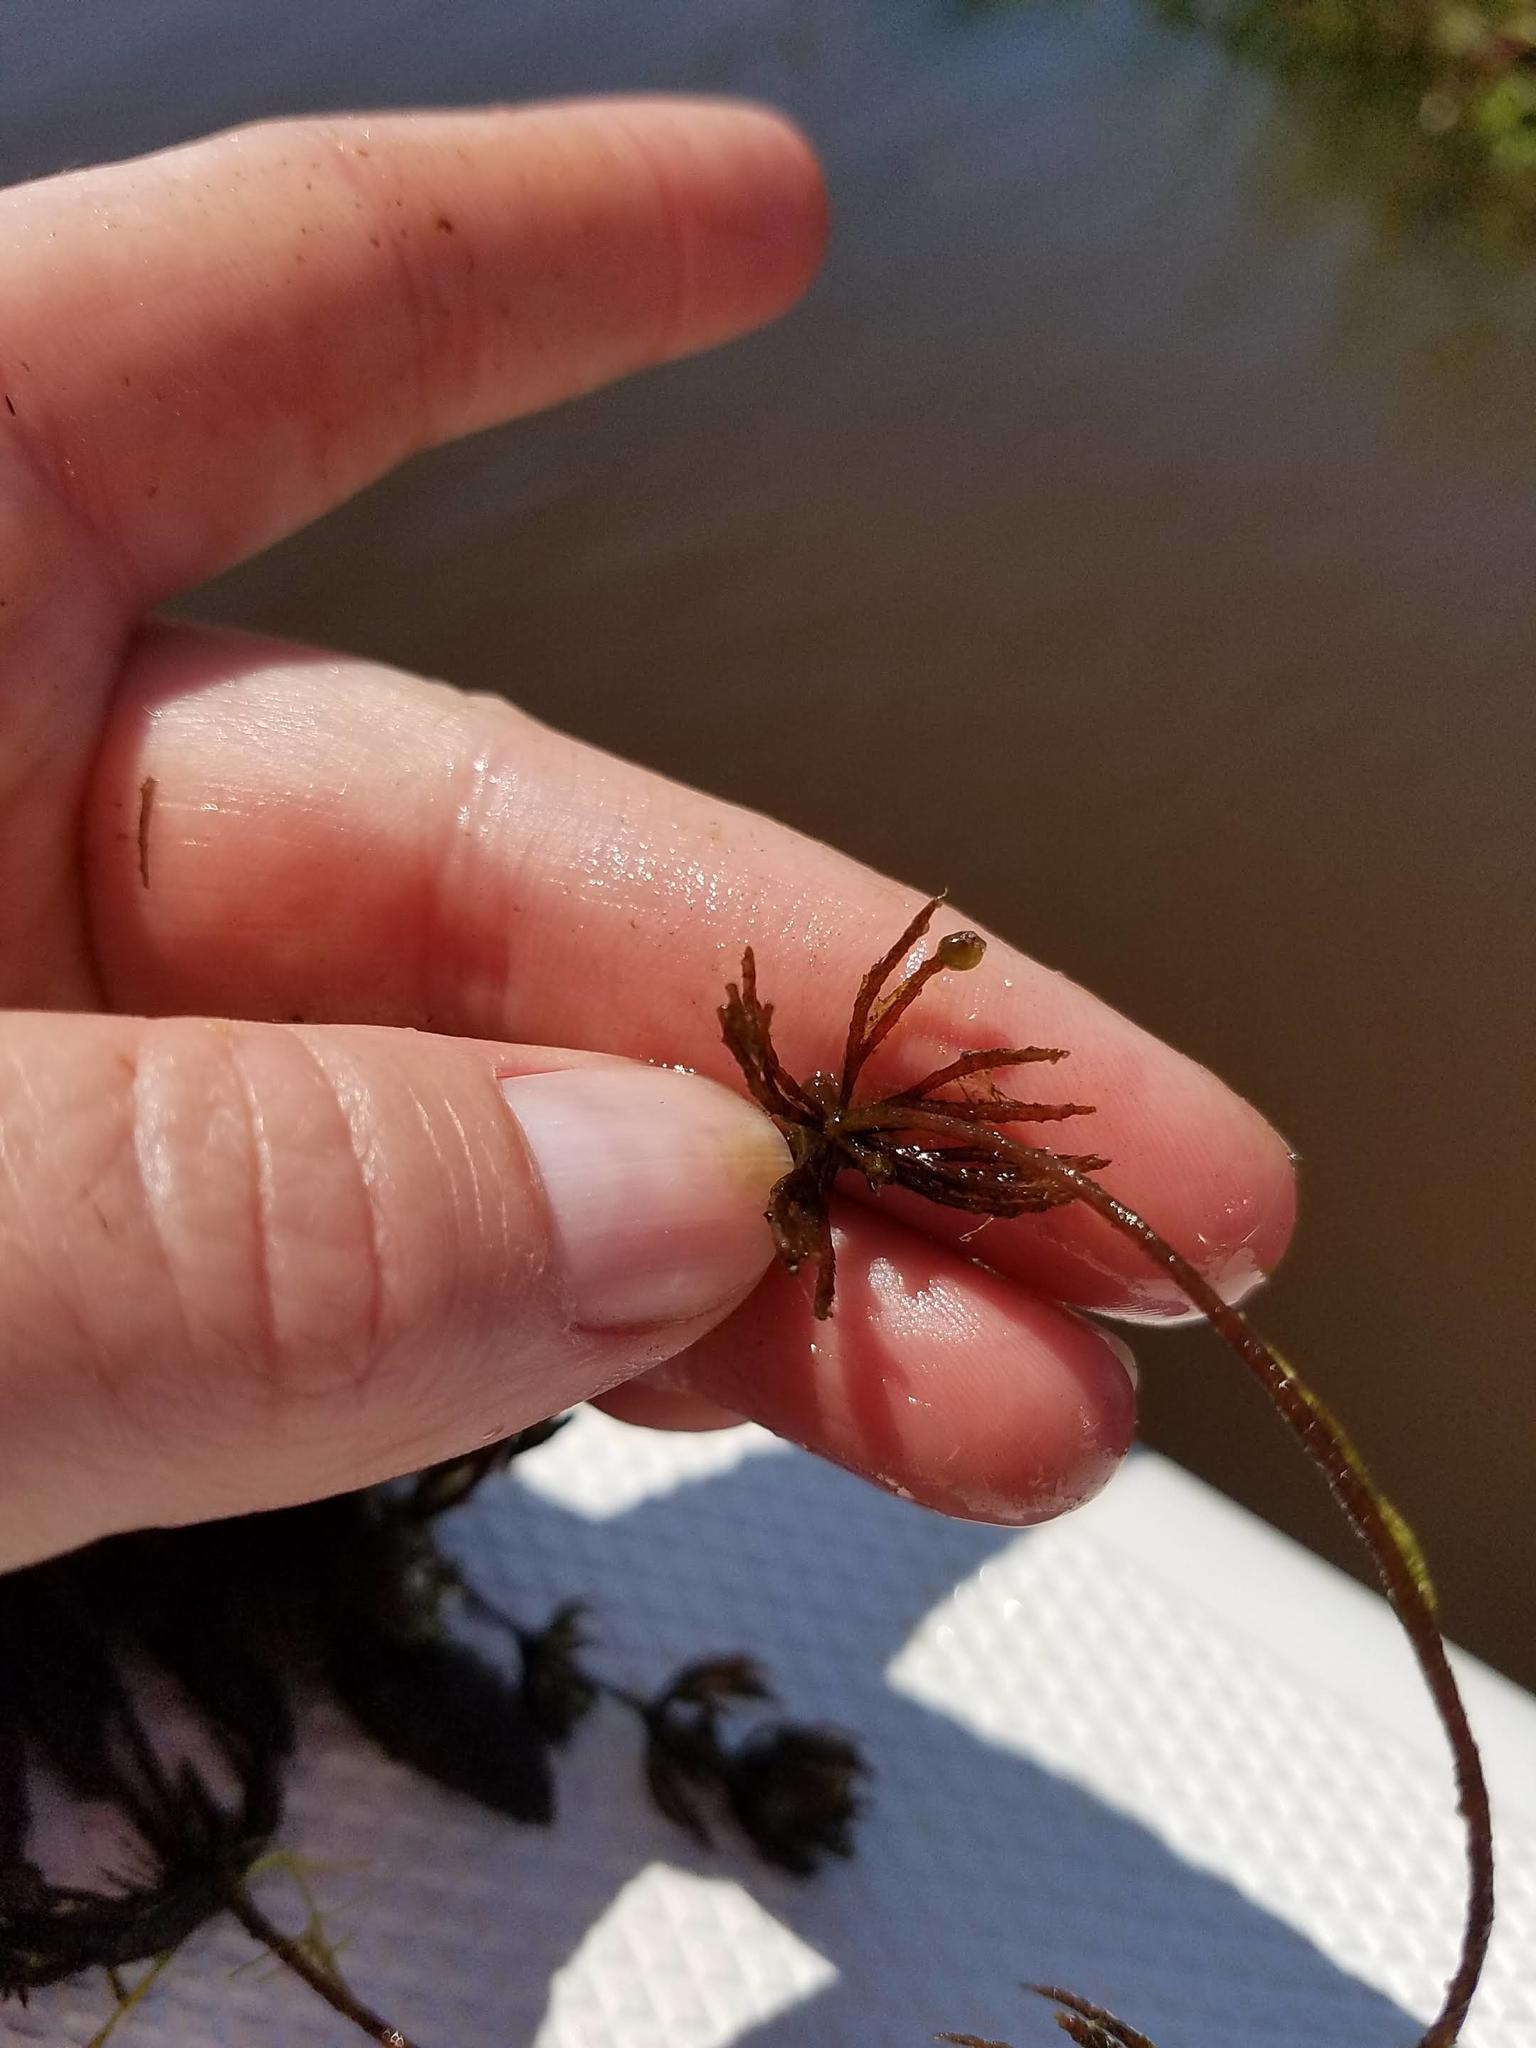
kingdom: Plantae
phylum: Tracheophyta
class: Magnoliopsida
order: Ceratophyllales
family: Ceratophyllaceae
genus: Ceratophyllum
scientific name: Ceratophyllum demersum
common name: Rigid hornwort
